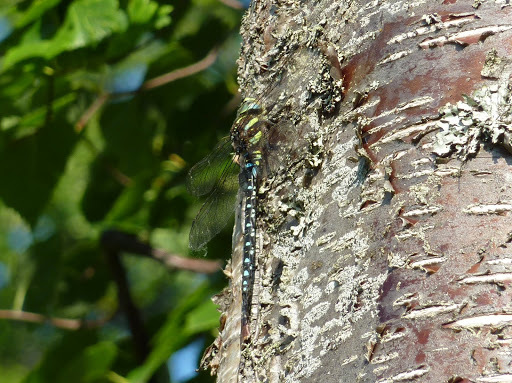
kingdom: Animalia
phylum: Arthropoda
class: Insecta
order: Odonata
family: Aeshnidae
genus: Aeshna
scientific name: Aeshna juncea
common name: Moorland hawker
